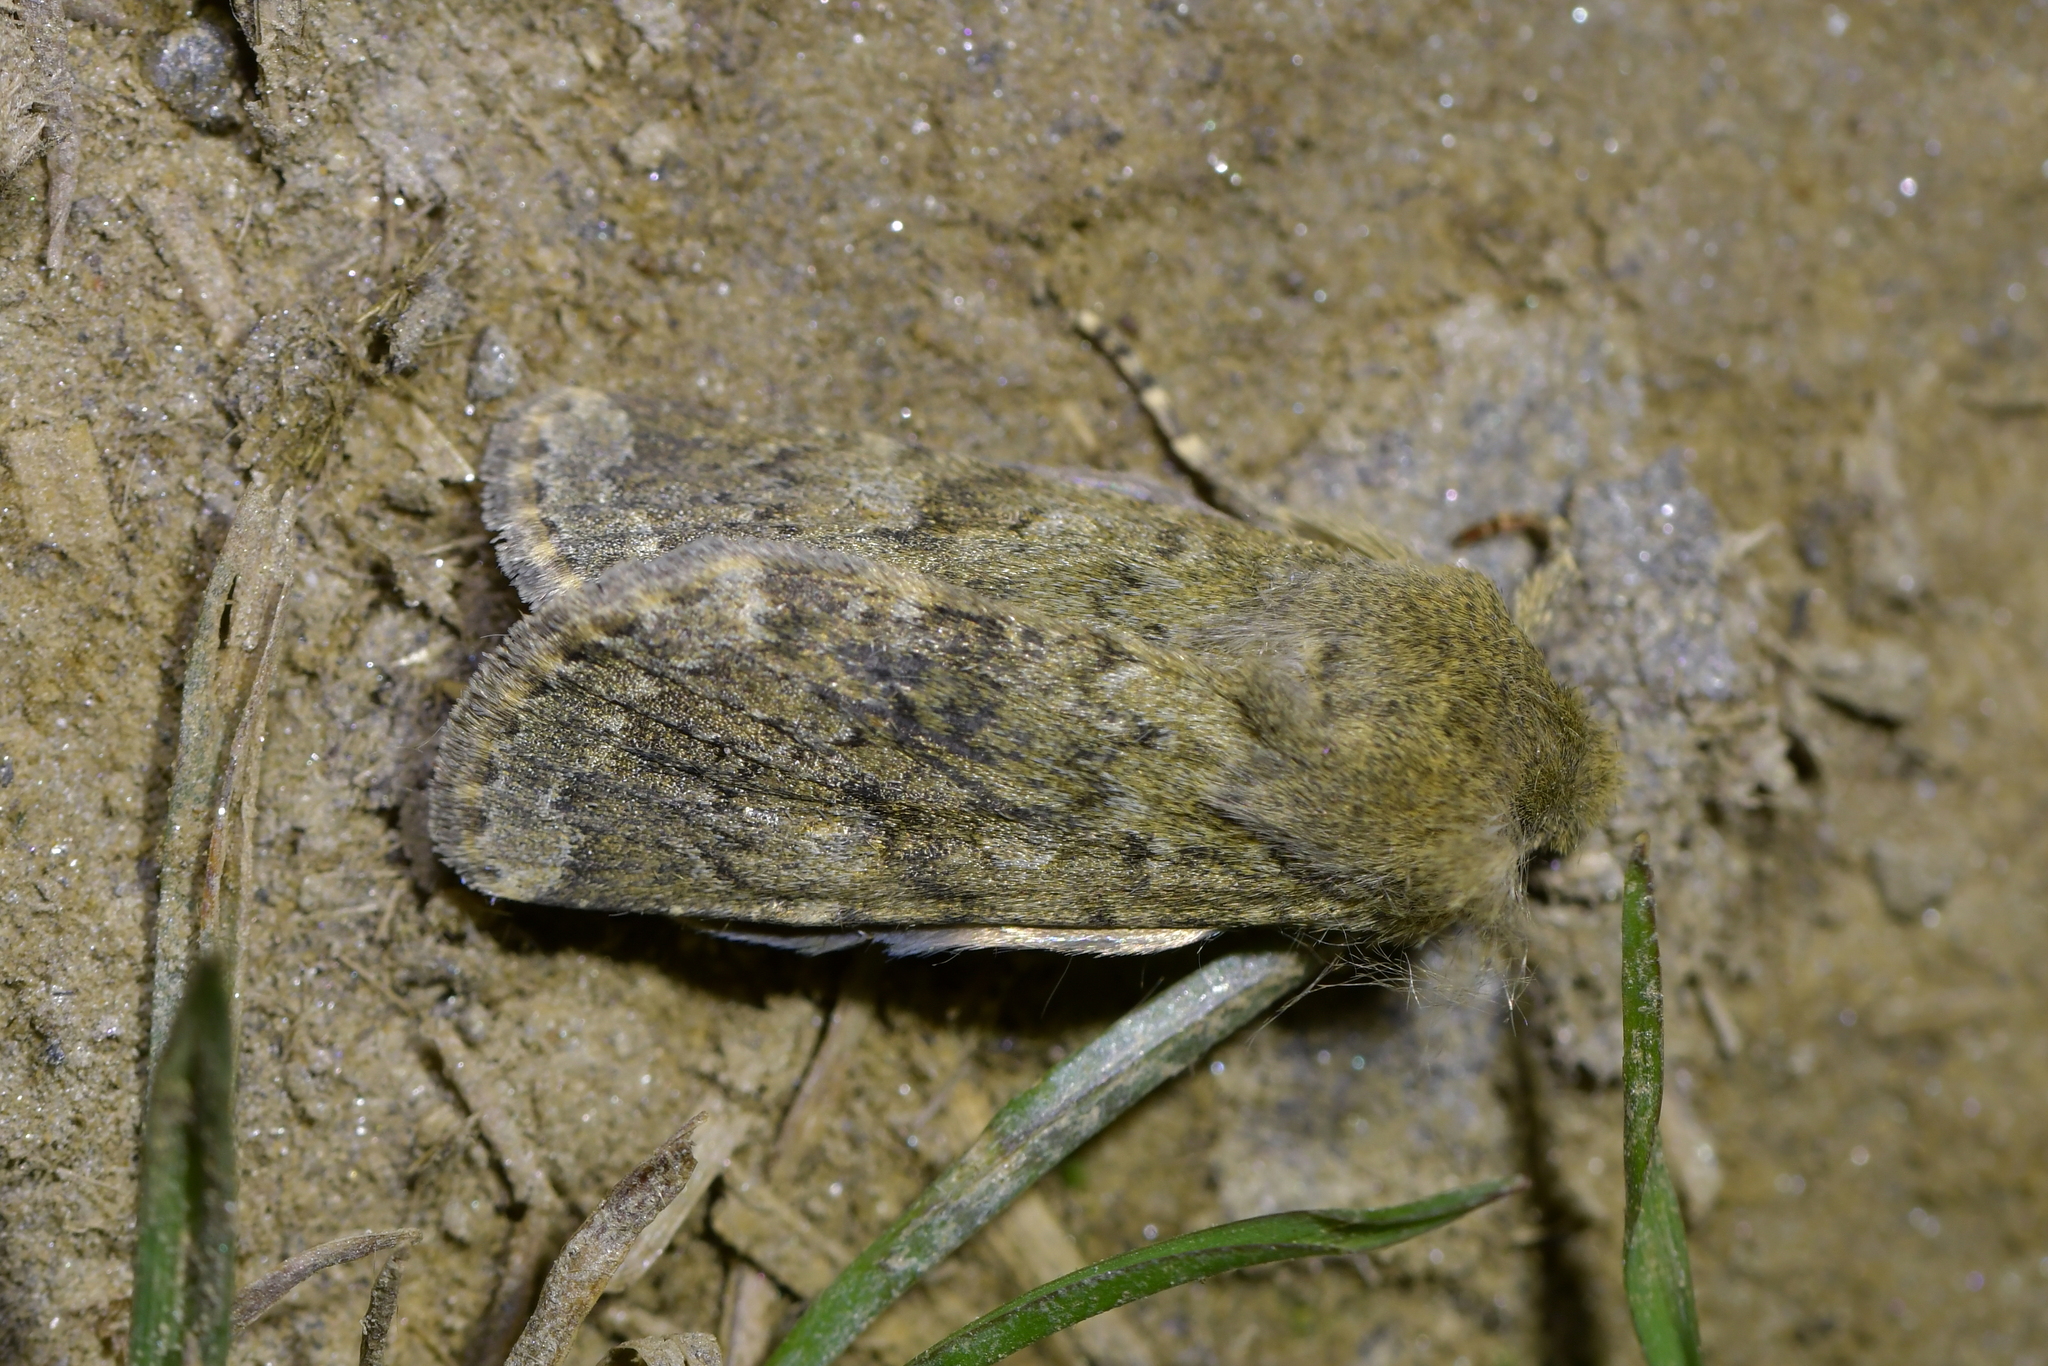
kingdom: Animalia
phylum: Arthropoda
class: Insecta
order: Lepidoptera
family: Noctuidae
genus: Ichneutica
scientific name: Ichneutica moderata
